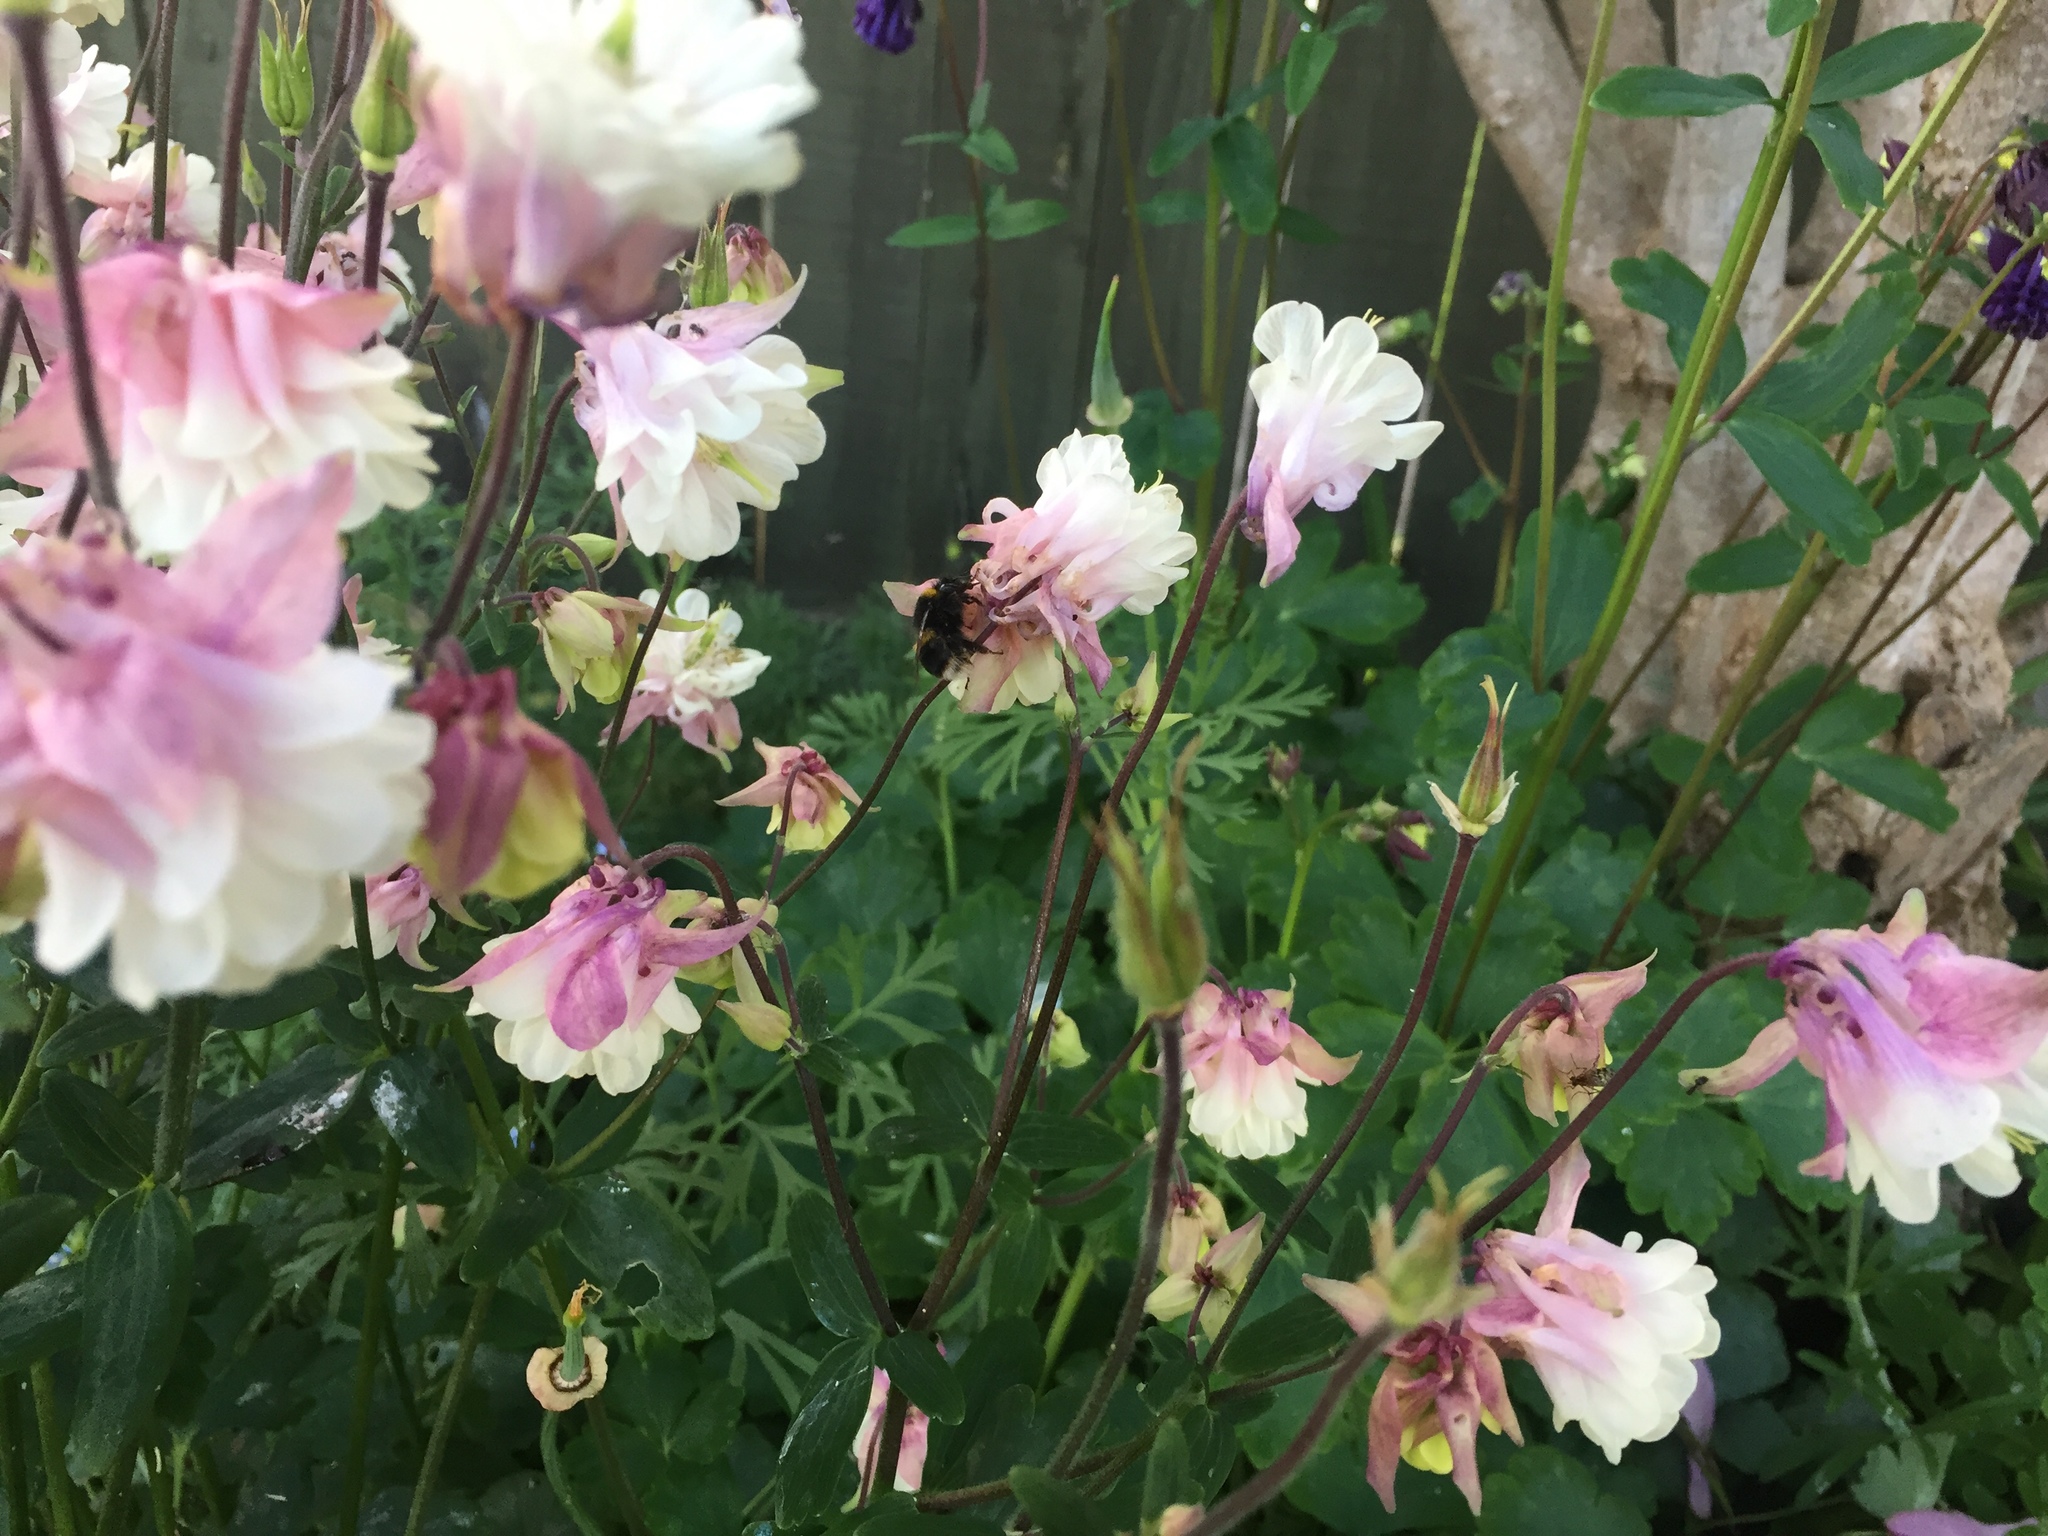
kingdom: Animalia
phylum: Arthropoda
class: Insecta
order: Hymenoptera
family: Apidae
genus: Bombus
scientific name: Bombus terrestris
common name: Buff-tailed bumblebee
